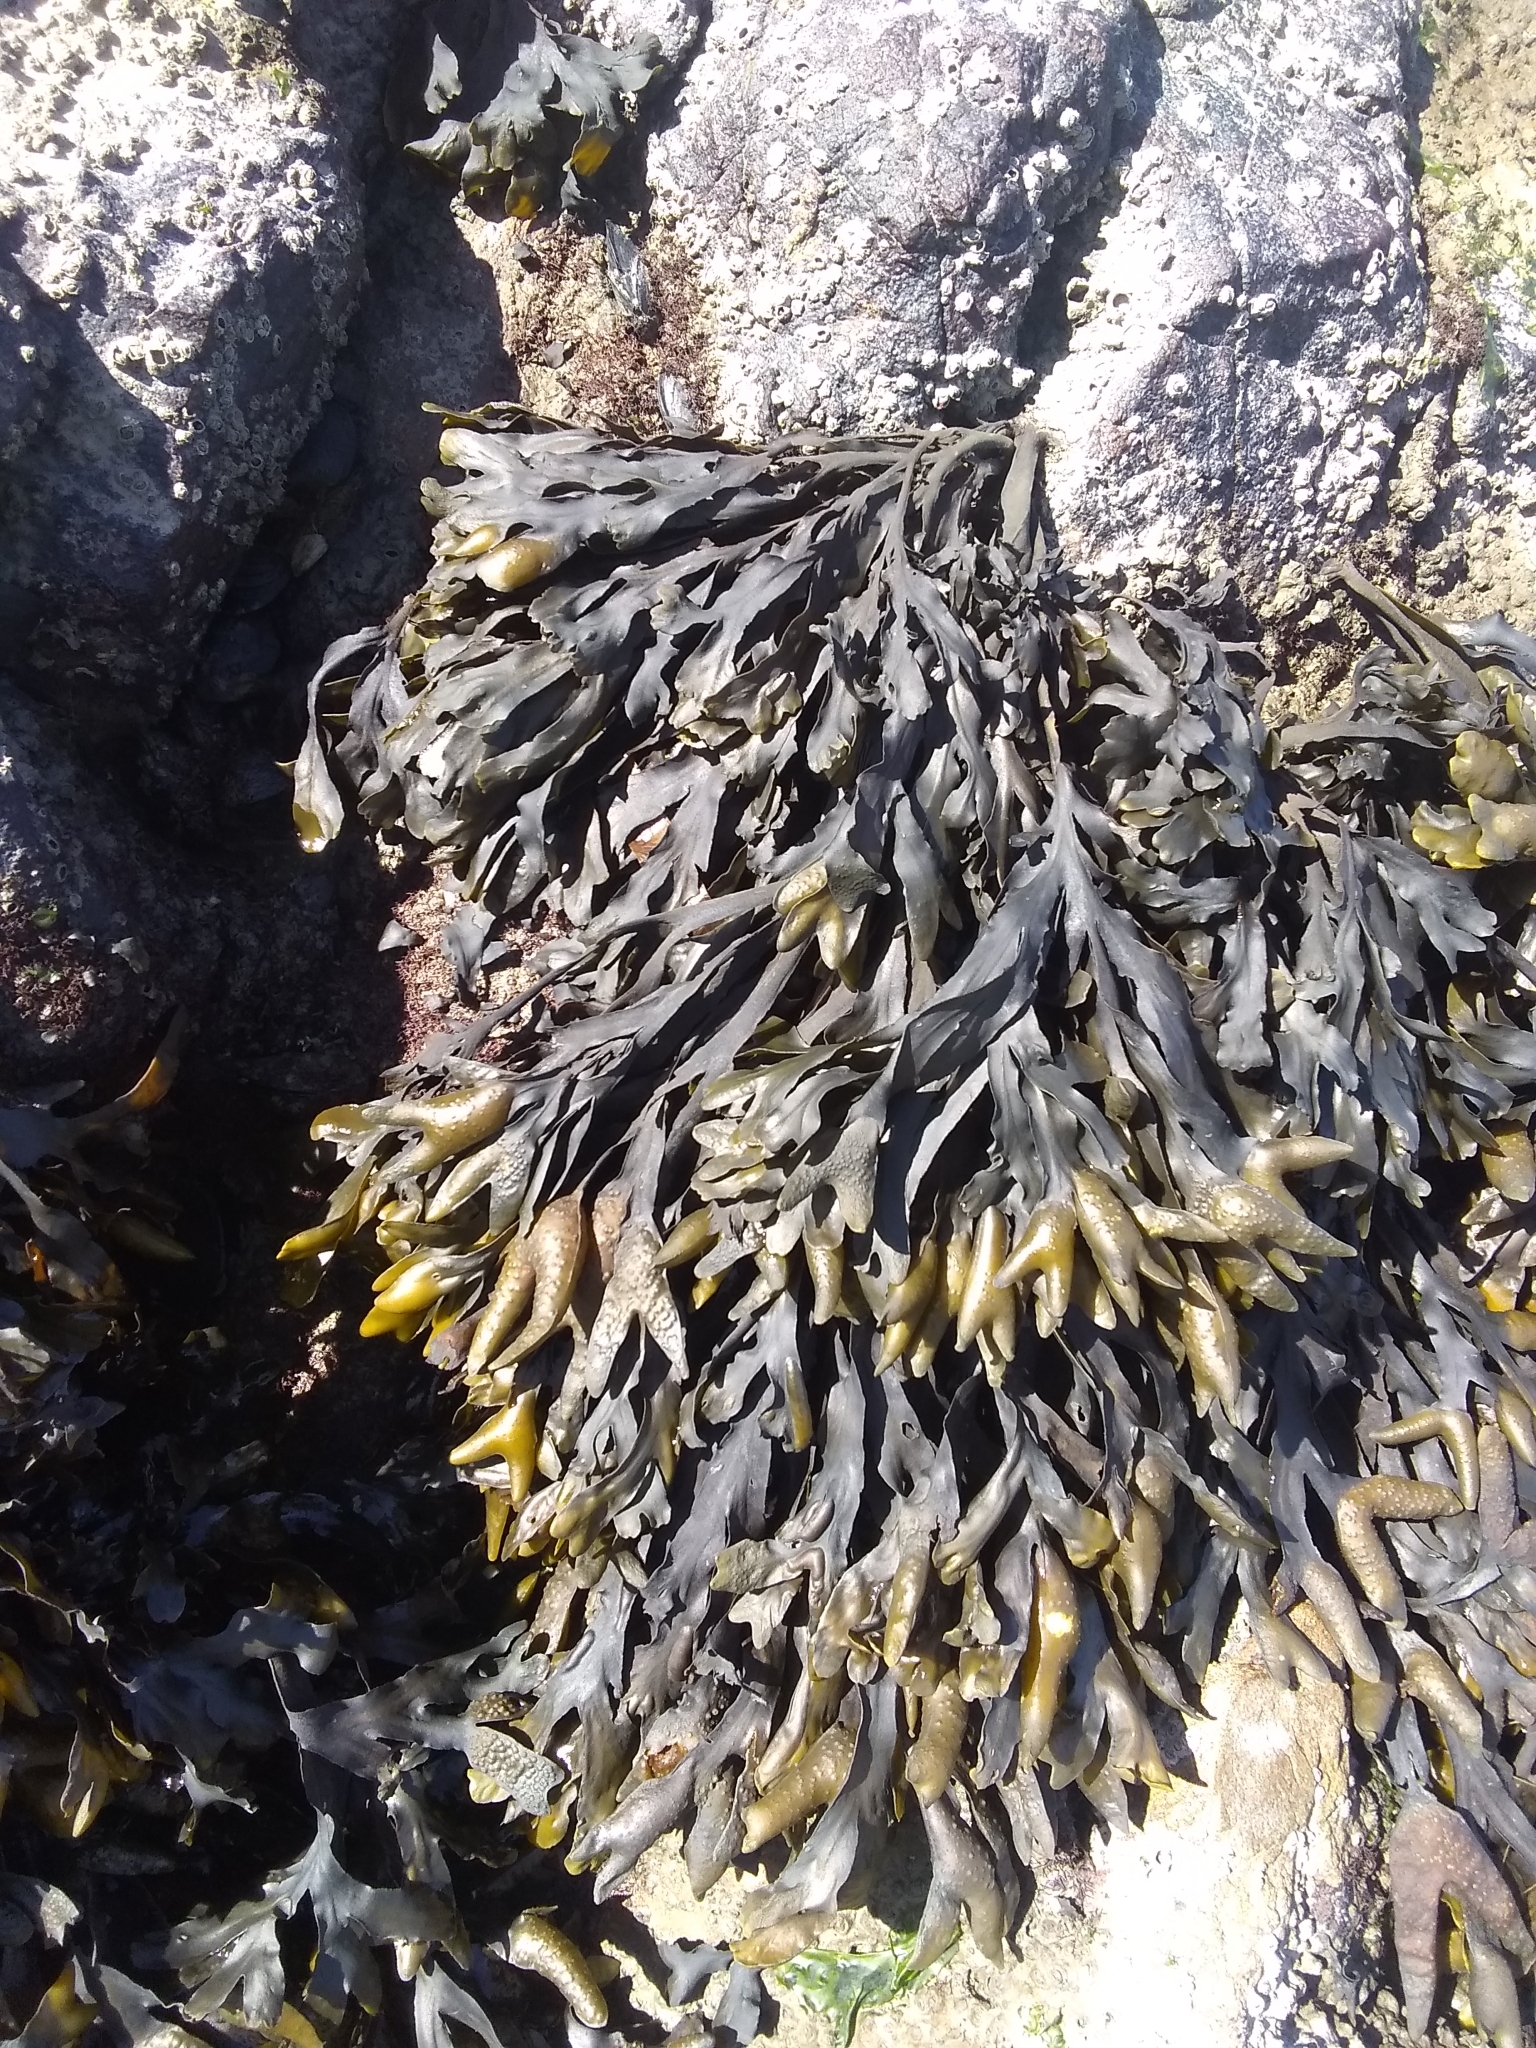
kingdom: Chromista
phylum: Ochrophyta
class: Phaeophyceae
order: Fucales
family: Fucaceae
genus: Fucus
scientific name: Fucus distichus
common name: Rockweed
